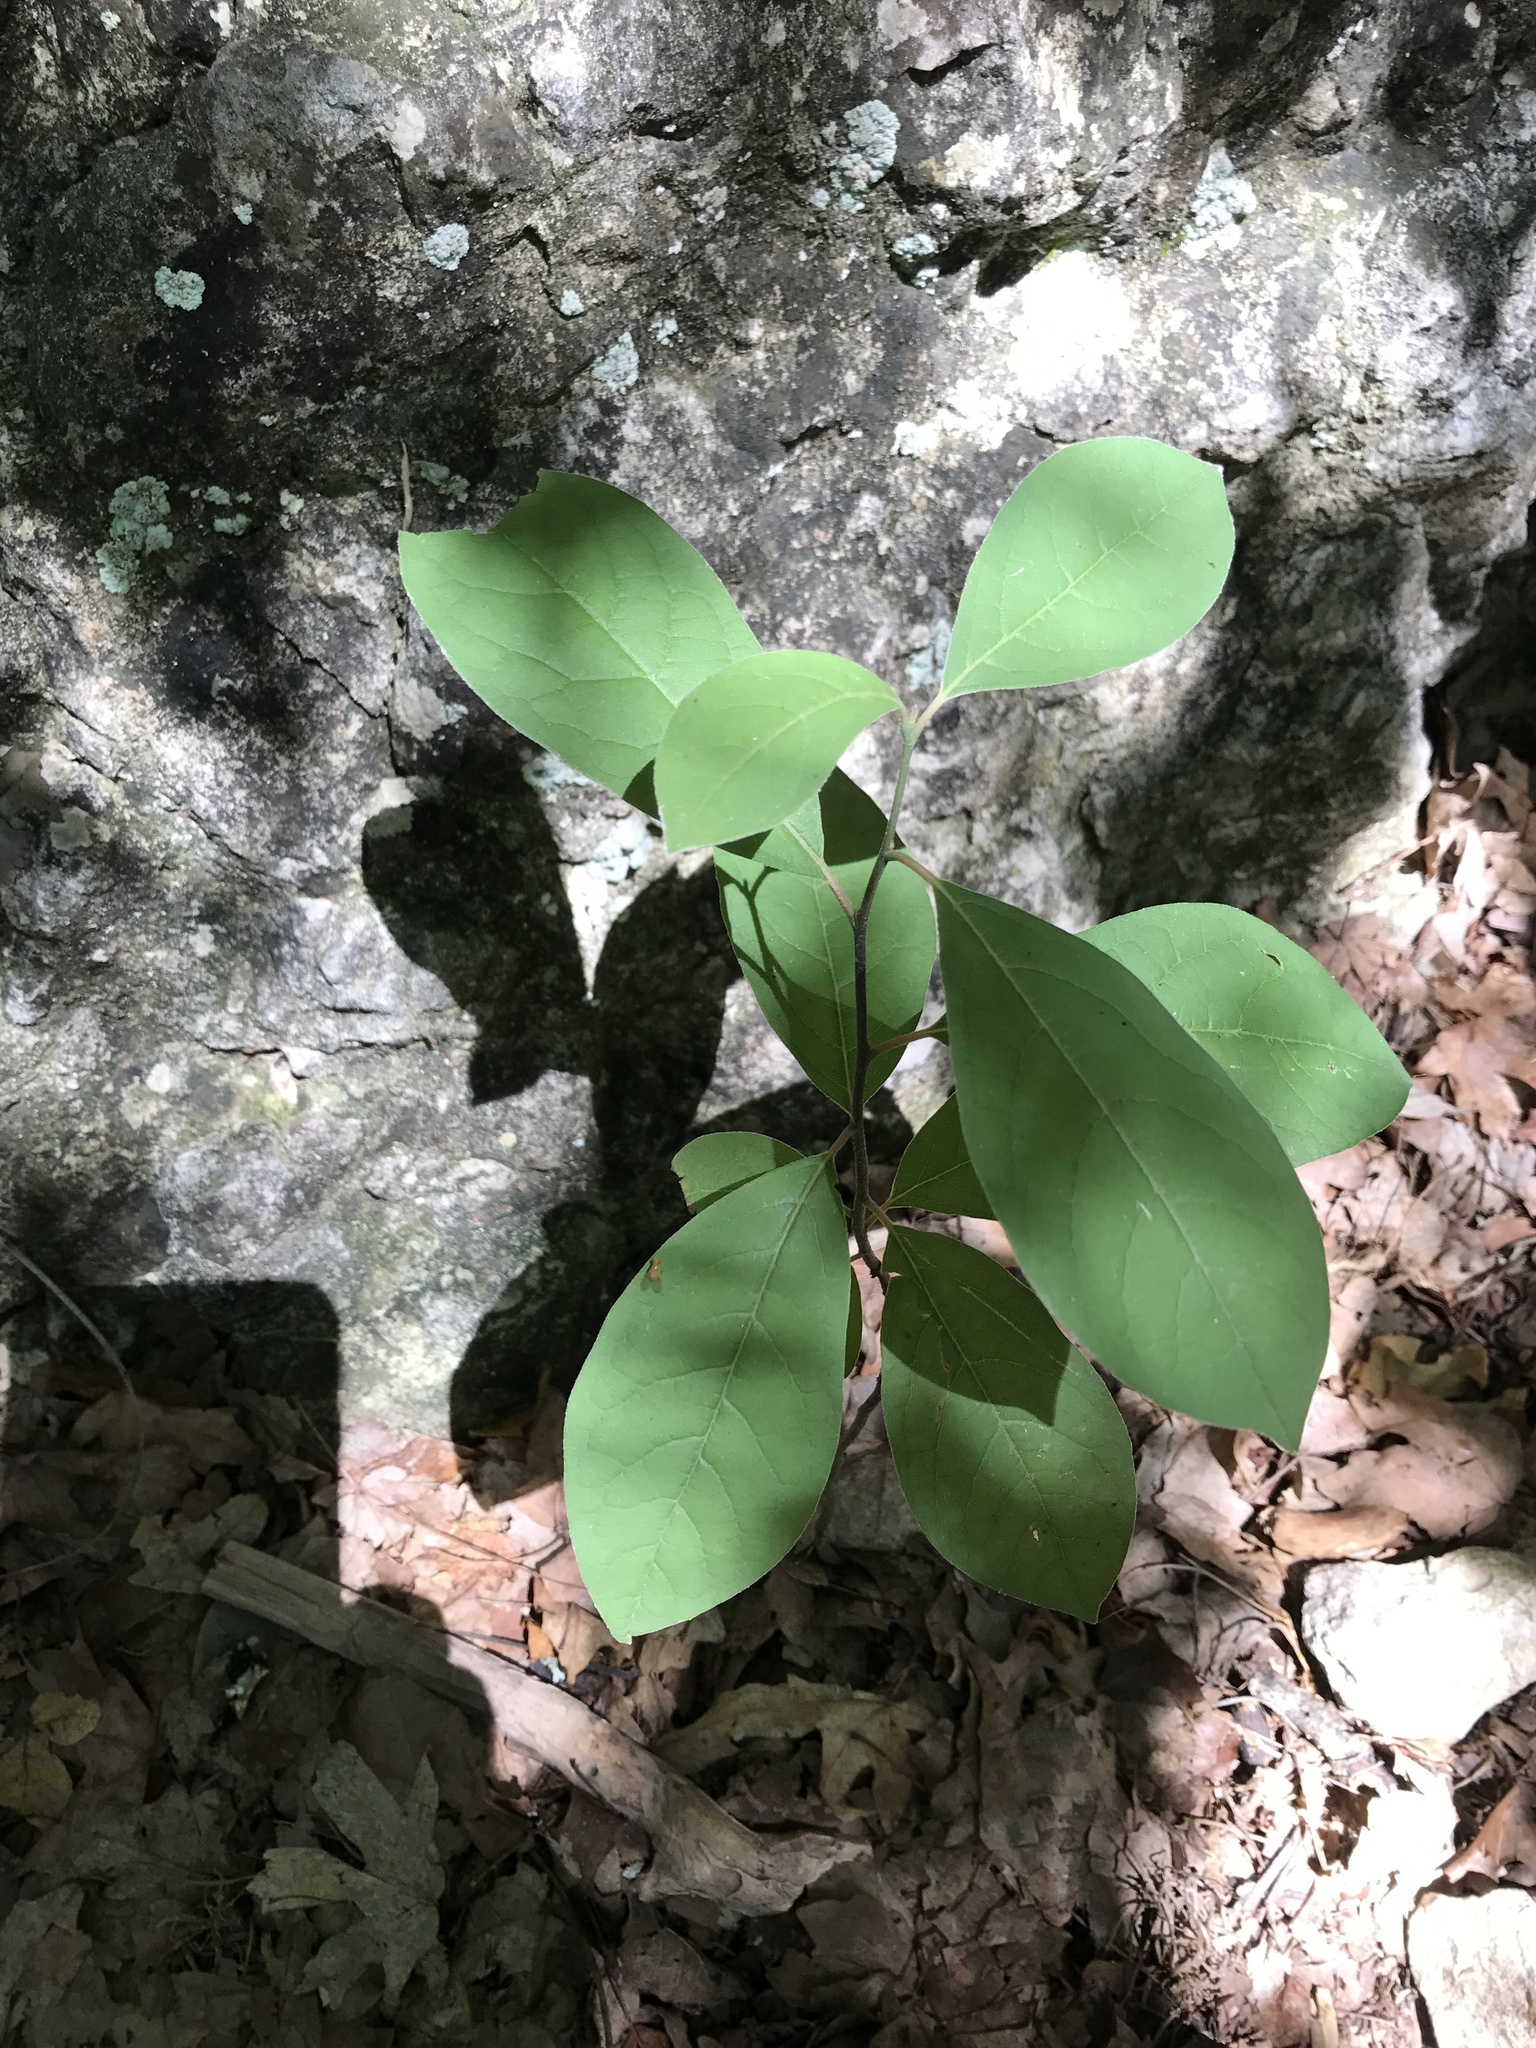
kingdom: Plantae
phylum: Tracheophyta
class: Magnoliopsida
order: Laurales
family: Lauraceae
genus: Lindera
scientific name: Lindera benzoin
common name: Spicebush
